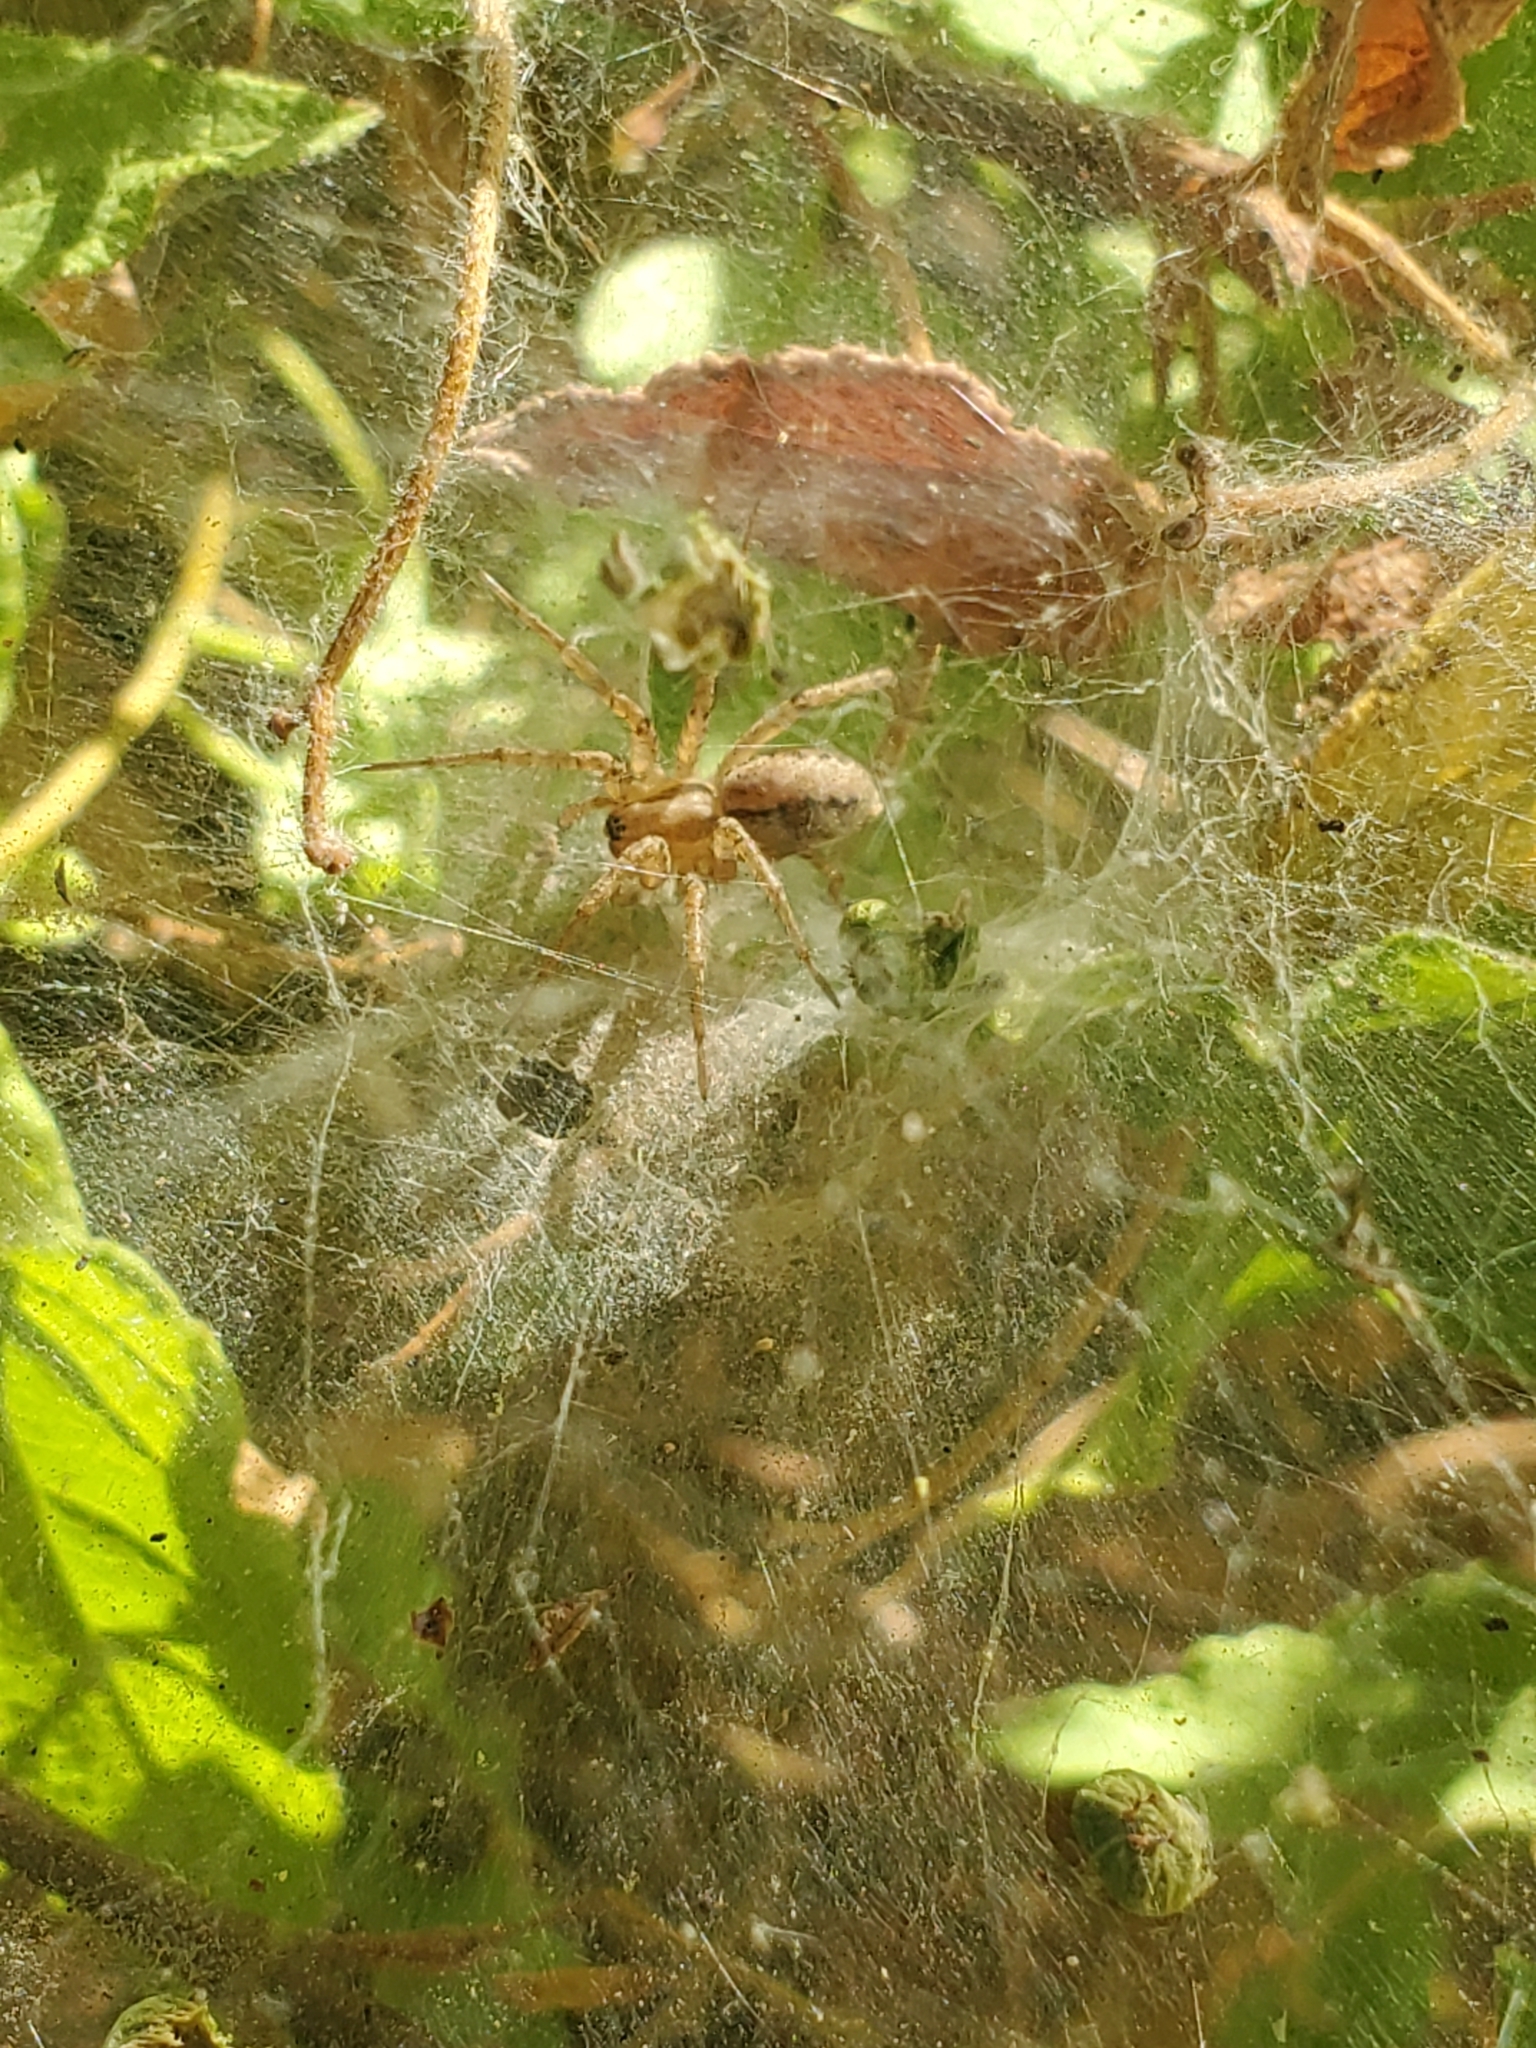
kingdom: Animalia
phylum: Arthropoda
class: Arachnida
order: Araneae
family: Agelenidae
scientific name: Agelenidae
